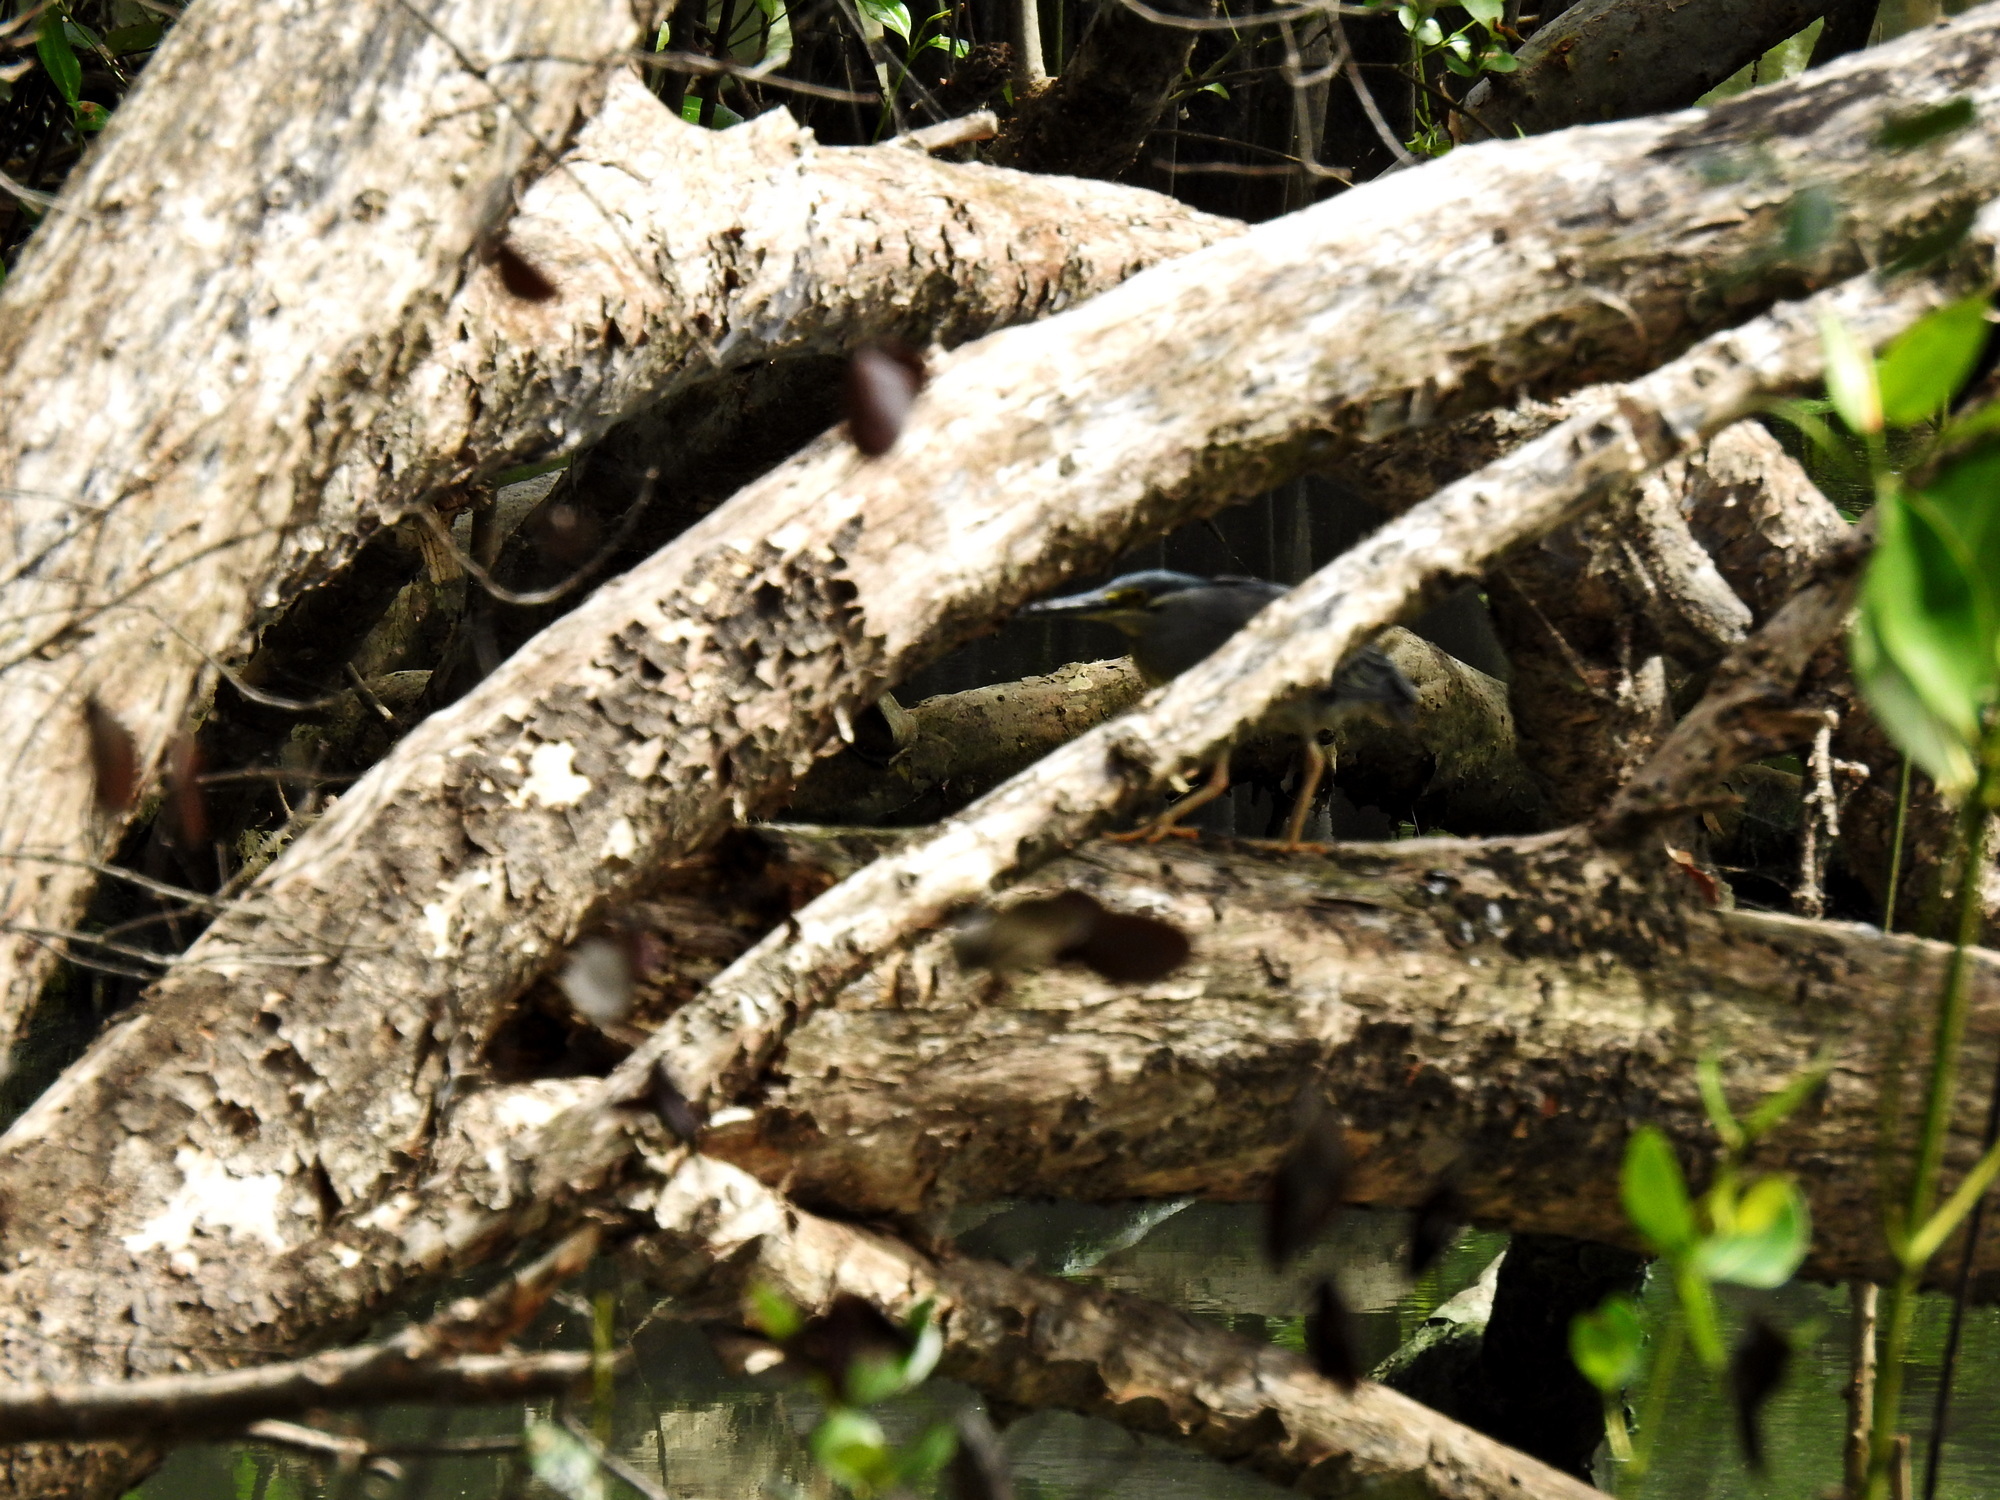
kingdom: Animalia
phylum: Chordata
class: Aves
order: Pelecaniformes
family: Ardeidae
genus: Butorides
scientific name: Butorides striata
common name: Striated heron
